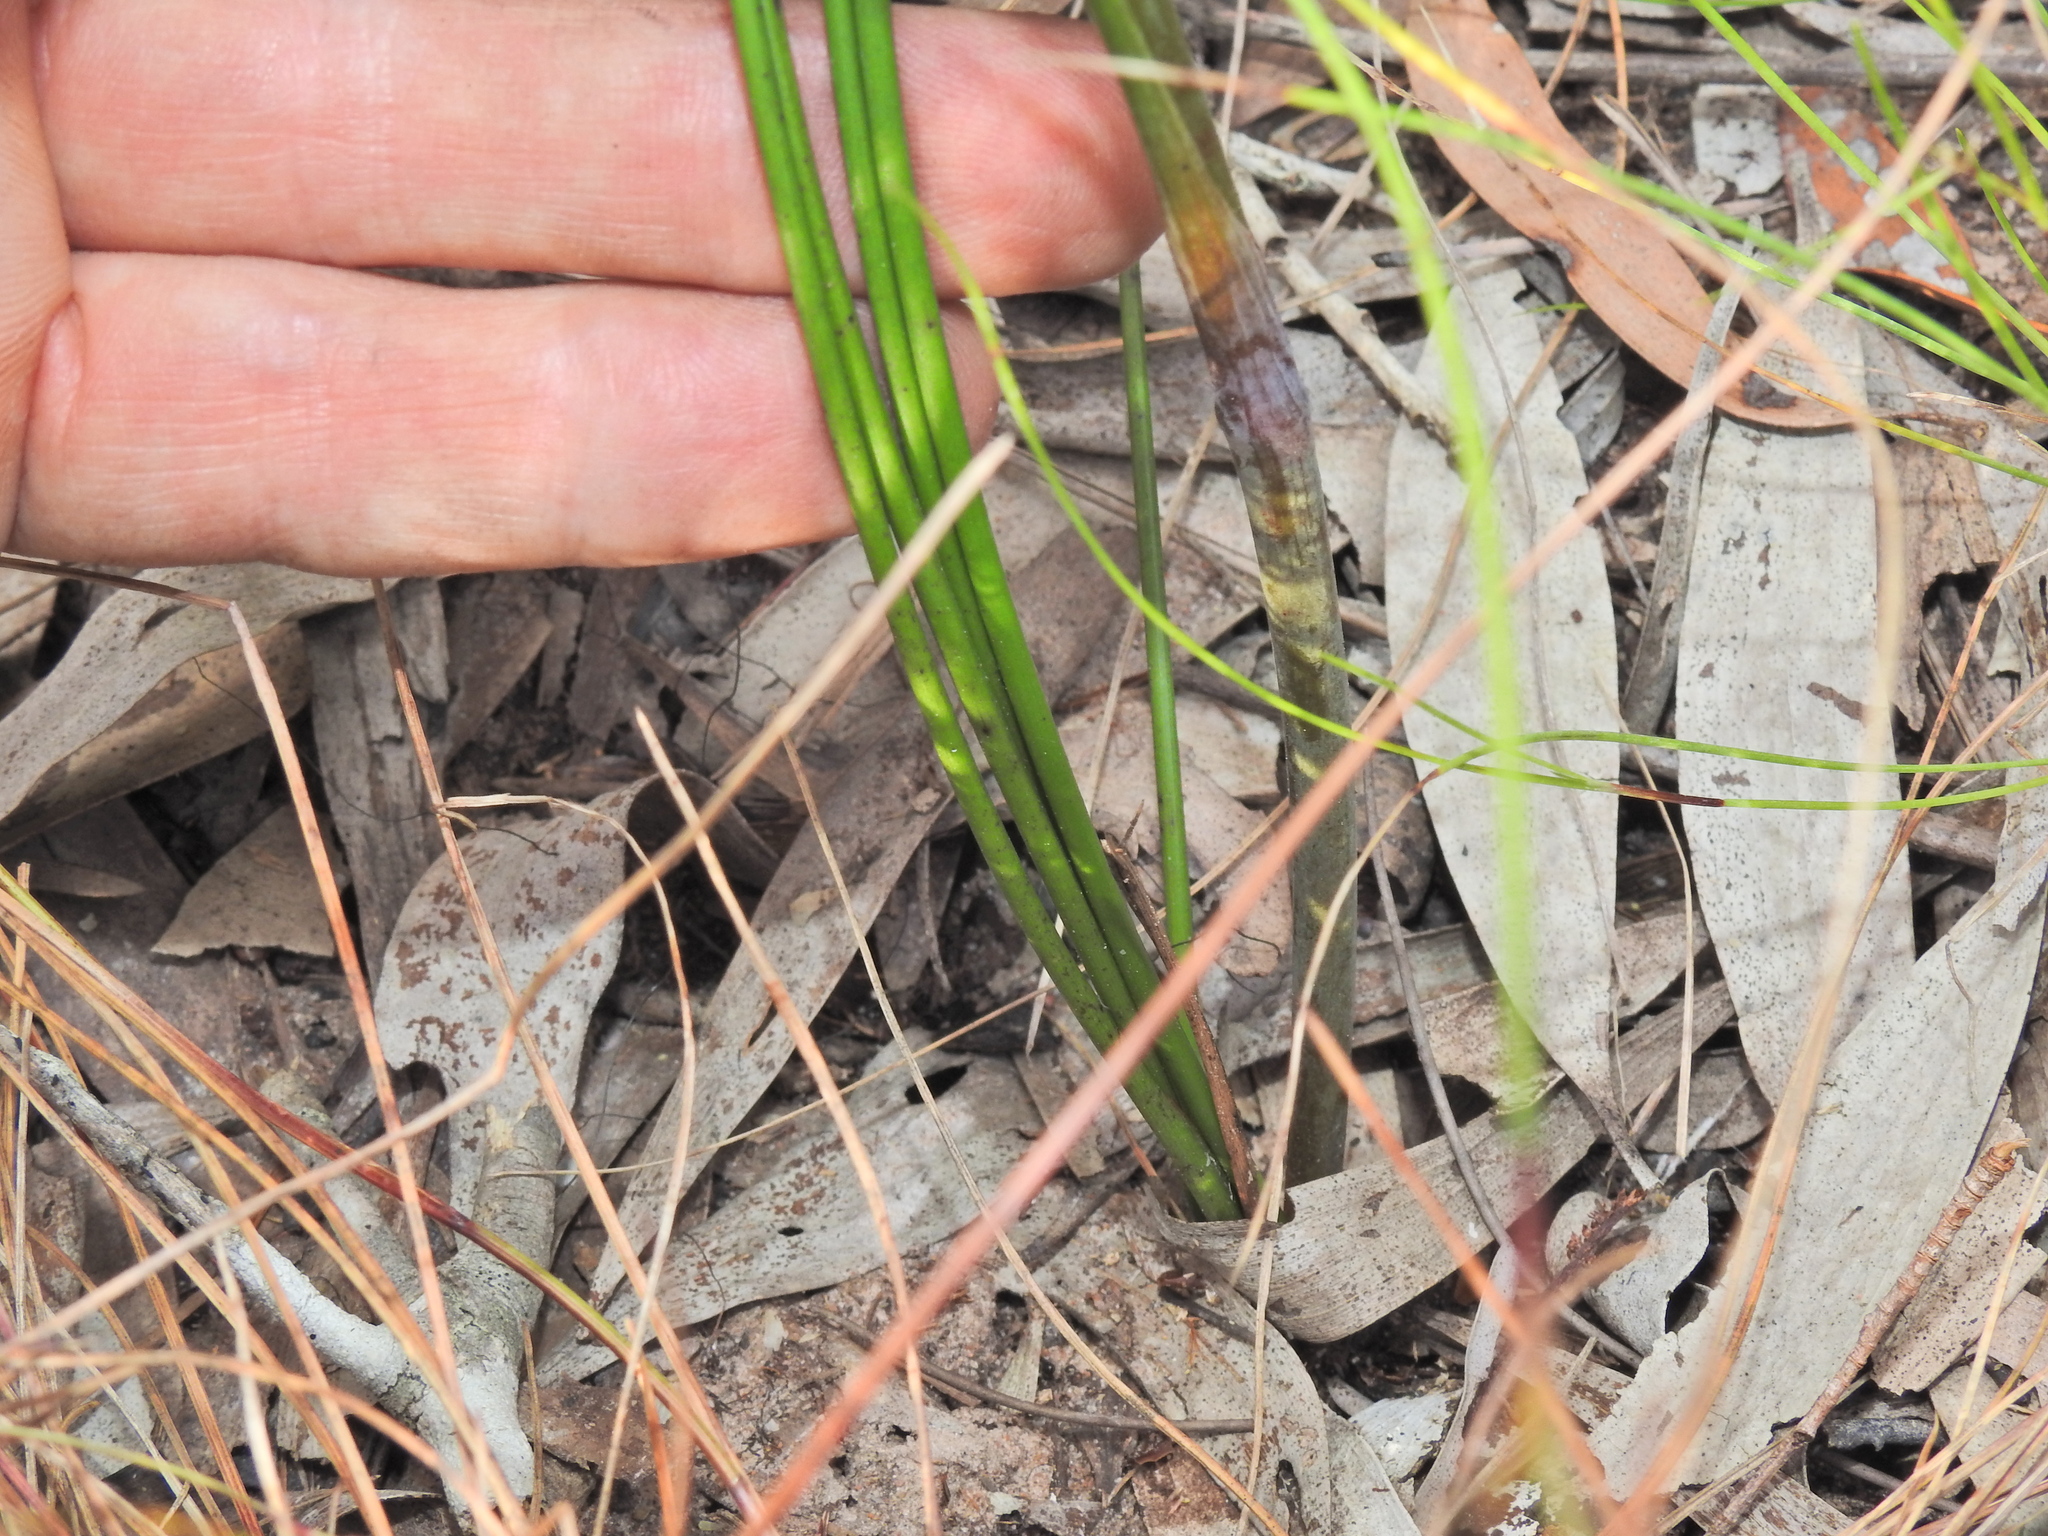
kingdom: Plantae
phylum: Tracheophyta
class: Liliopsida
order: Commelinales
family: Haemodoraceae
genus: Haemodorum
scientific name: Haemodorum tenuifolium
